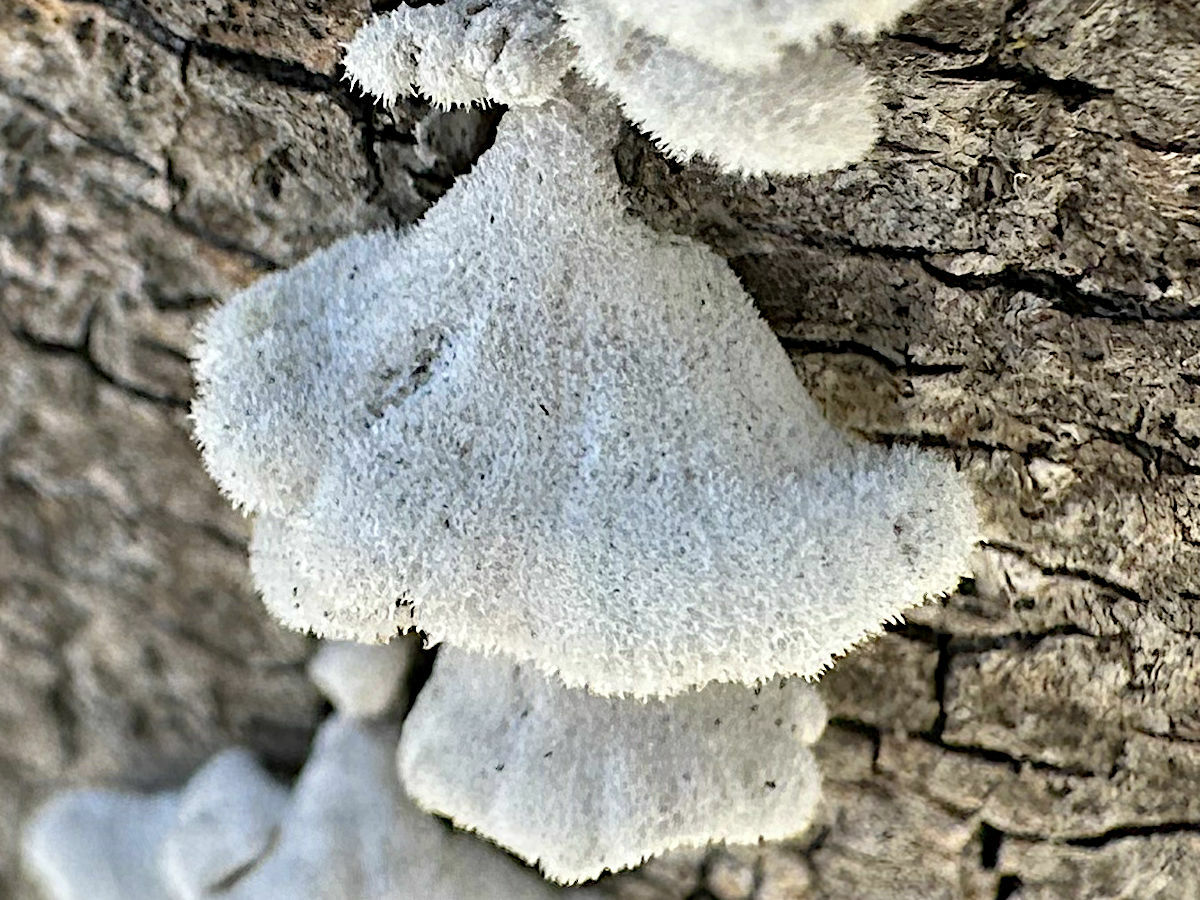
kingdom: Fungi
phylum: Basidiomycota
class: Agaricomycetes
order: Agaricales
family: Schizophyllaceae
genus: Schizophyllum
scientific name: Schizophyllum commune
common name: Common porecrust
